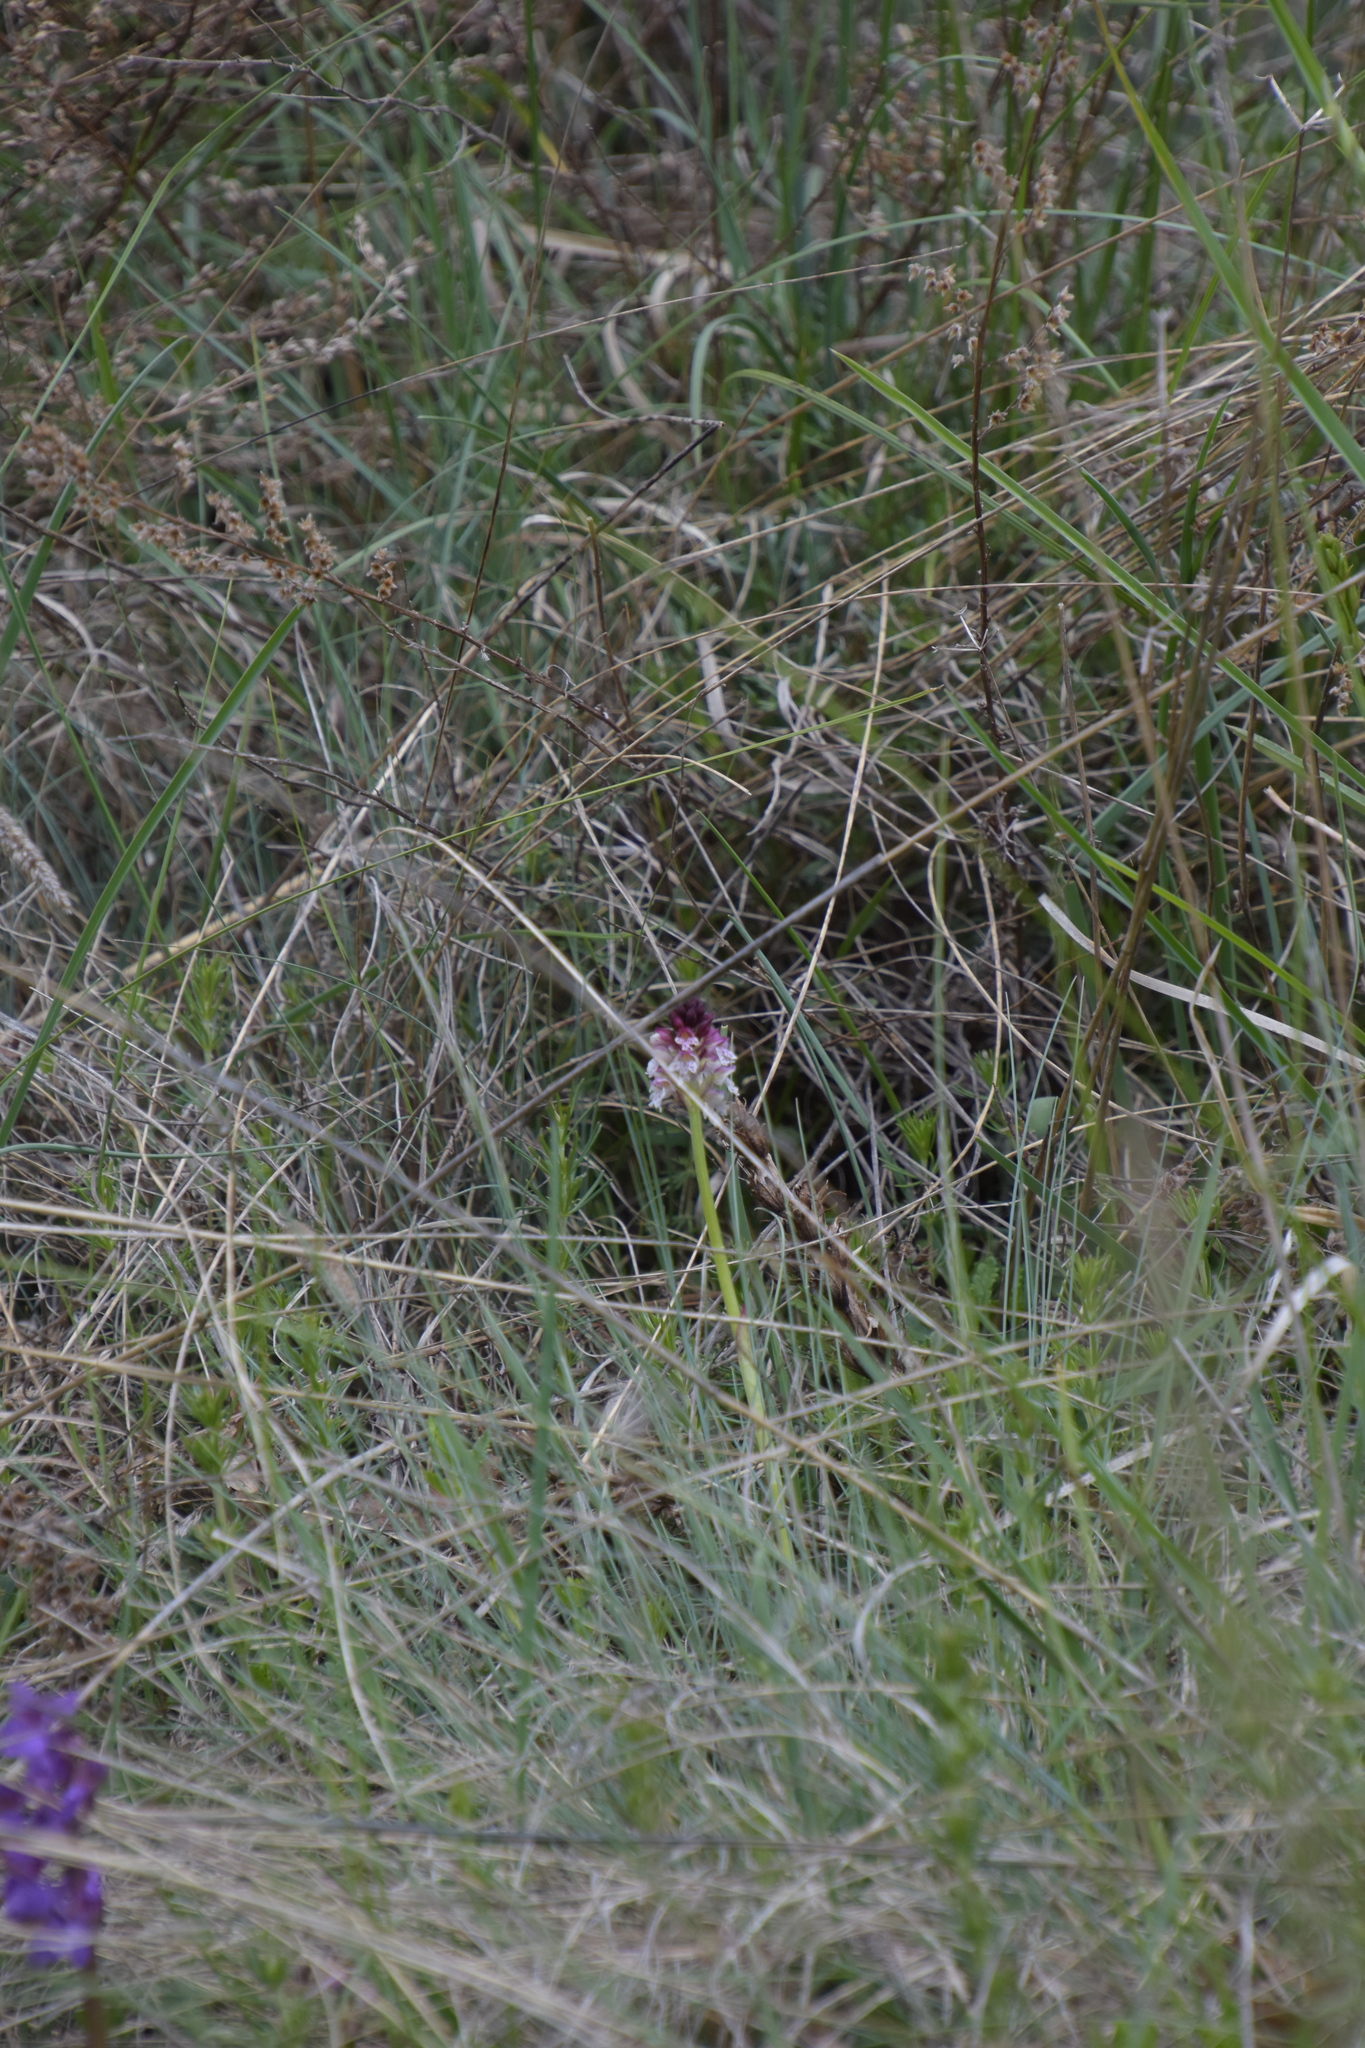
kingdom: Plantae
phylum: Tracheophyta
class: Liliopsida
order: Asparagales
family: Orchidaceae
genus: Neotinea
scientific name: Neotinea ustulata
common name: Burnt orchid
